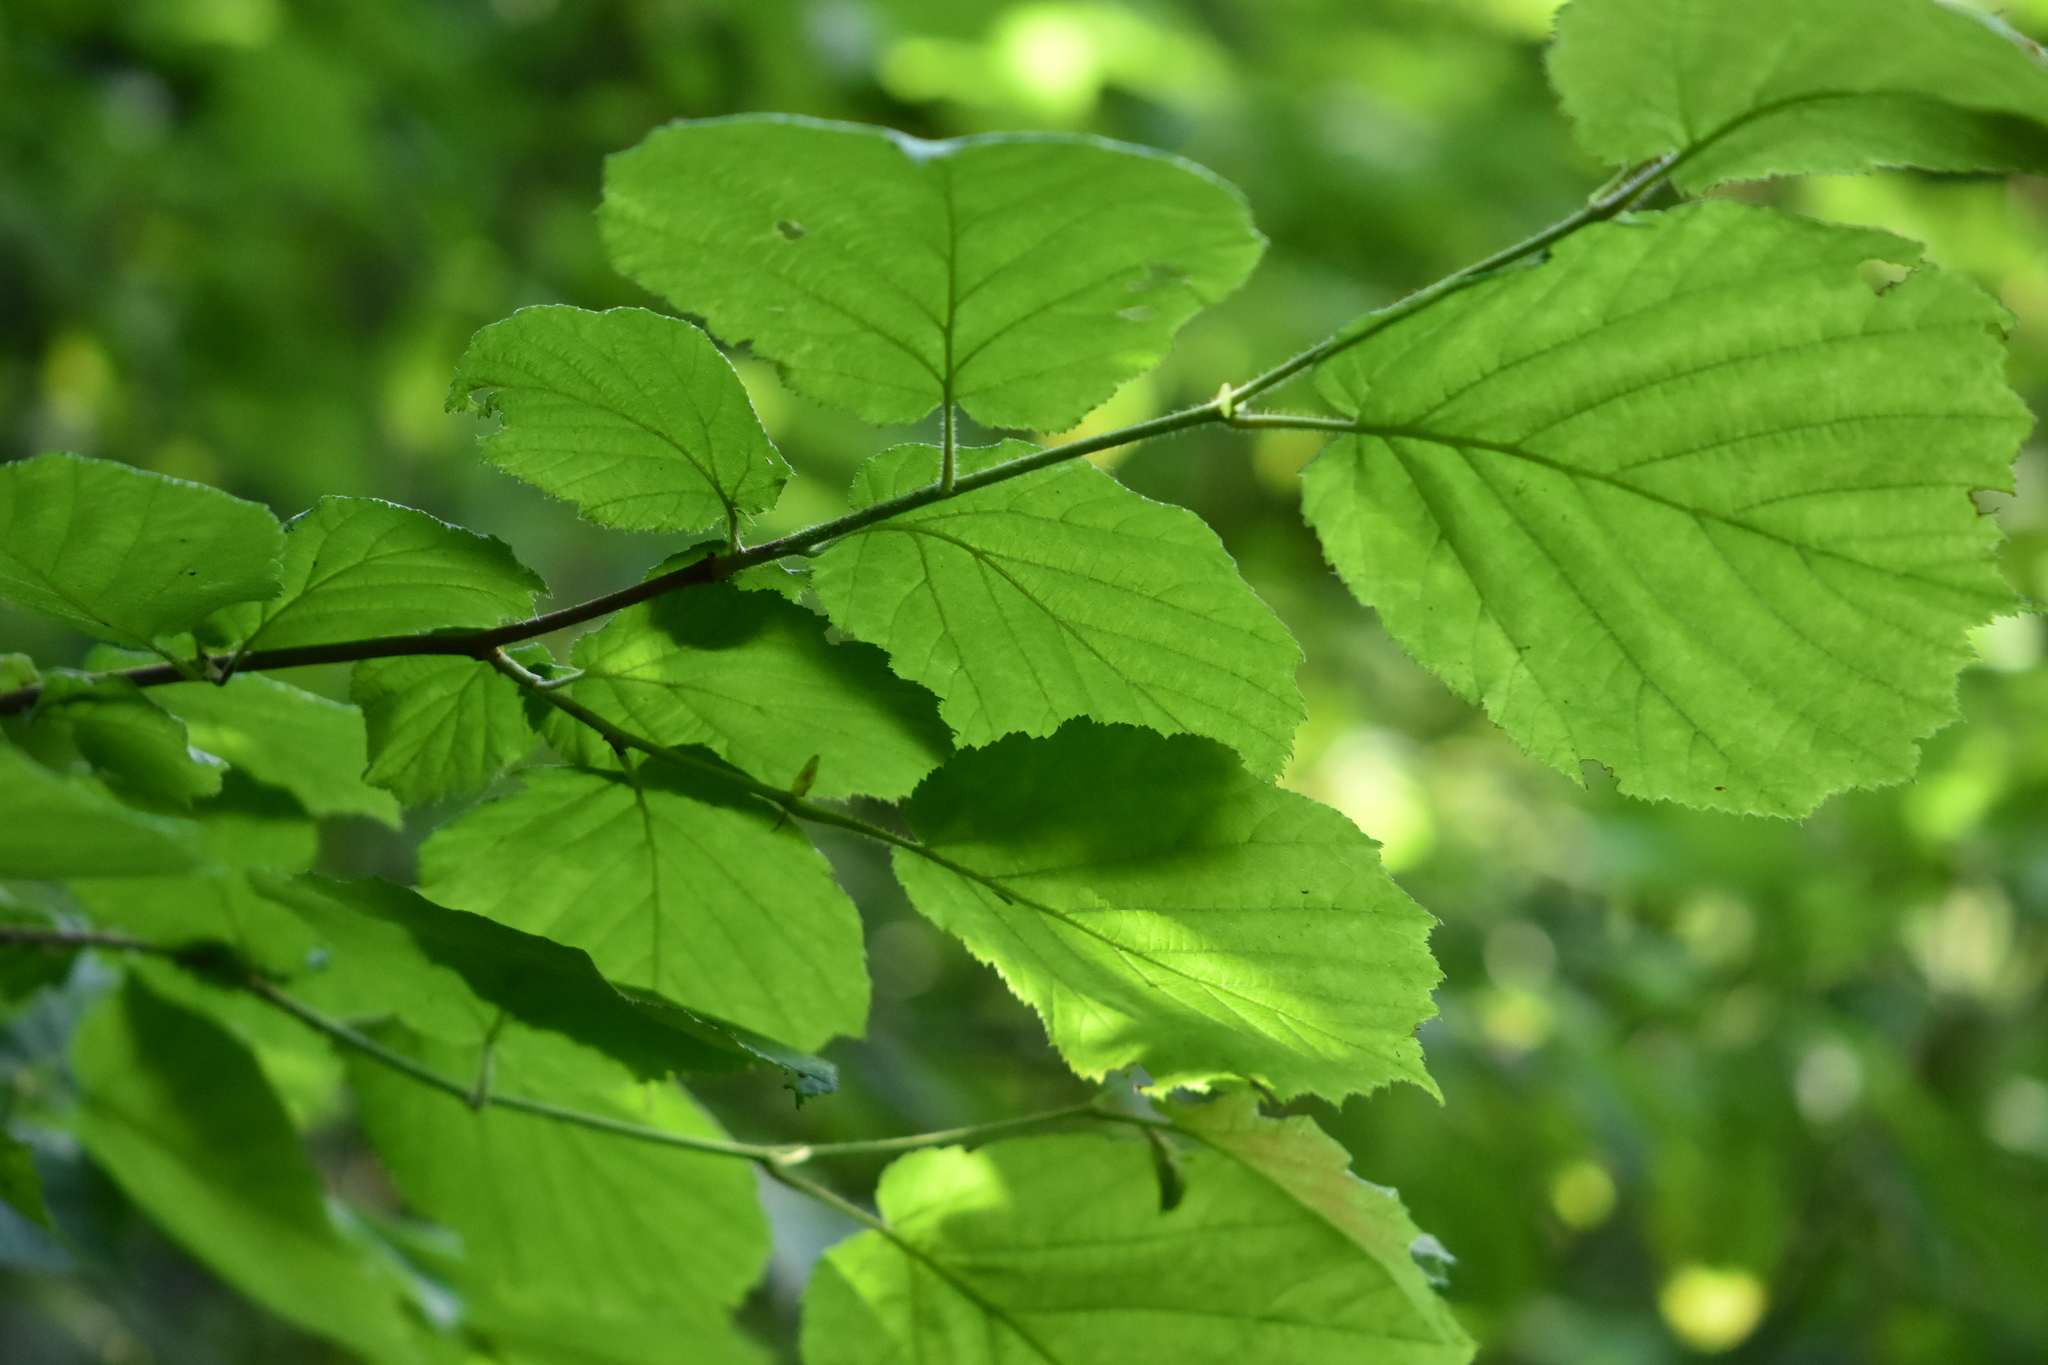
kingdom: Plantae
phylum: Tracheophyta
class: Magnoliopsida
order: Fagales
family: Betulaceae
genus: Corylus
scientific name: Corylus avellana
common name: European hazel
